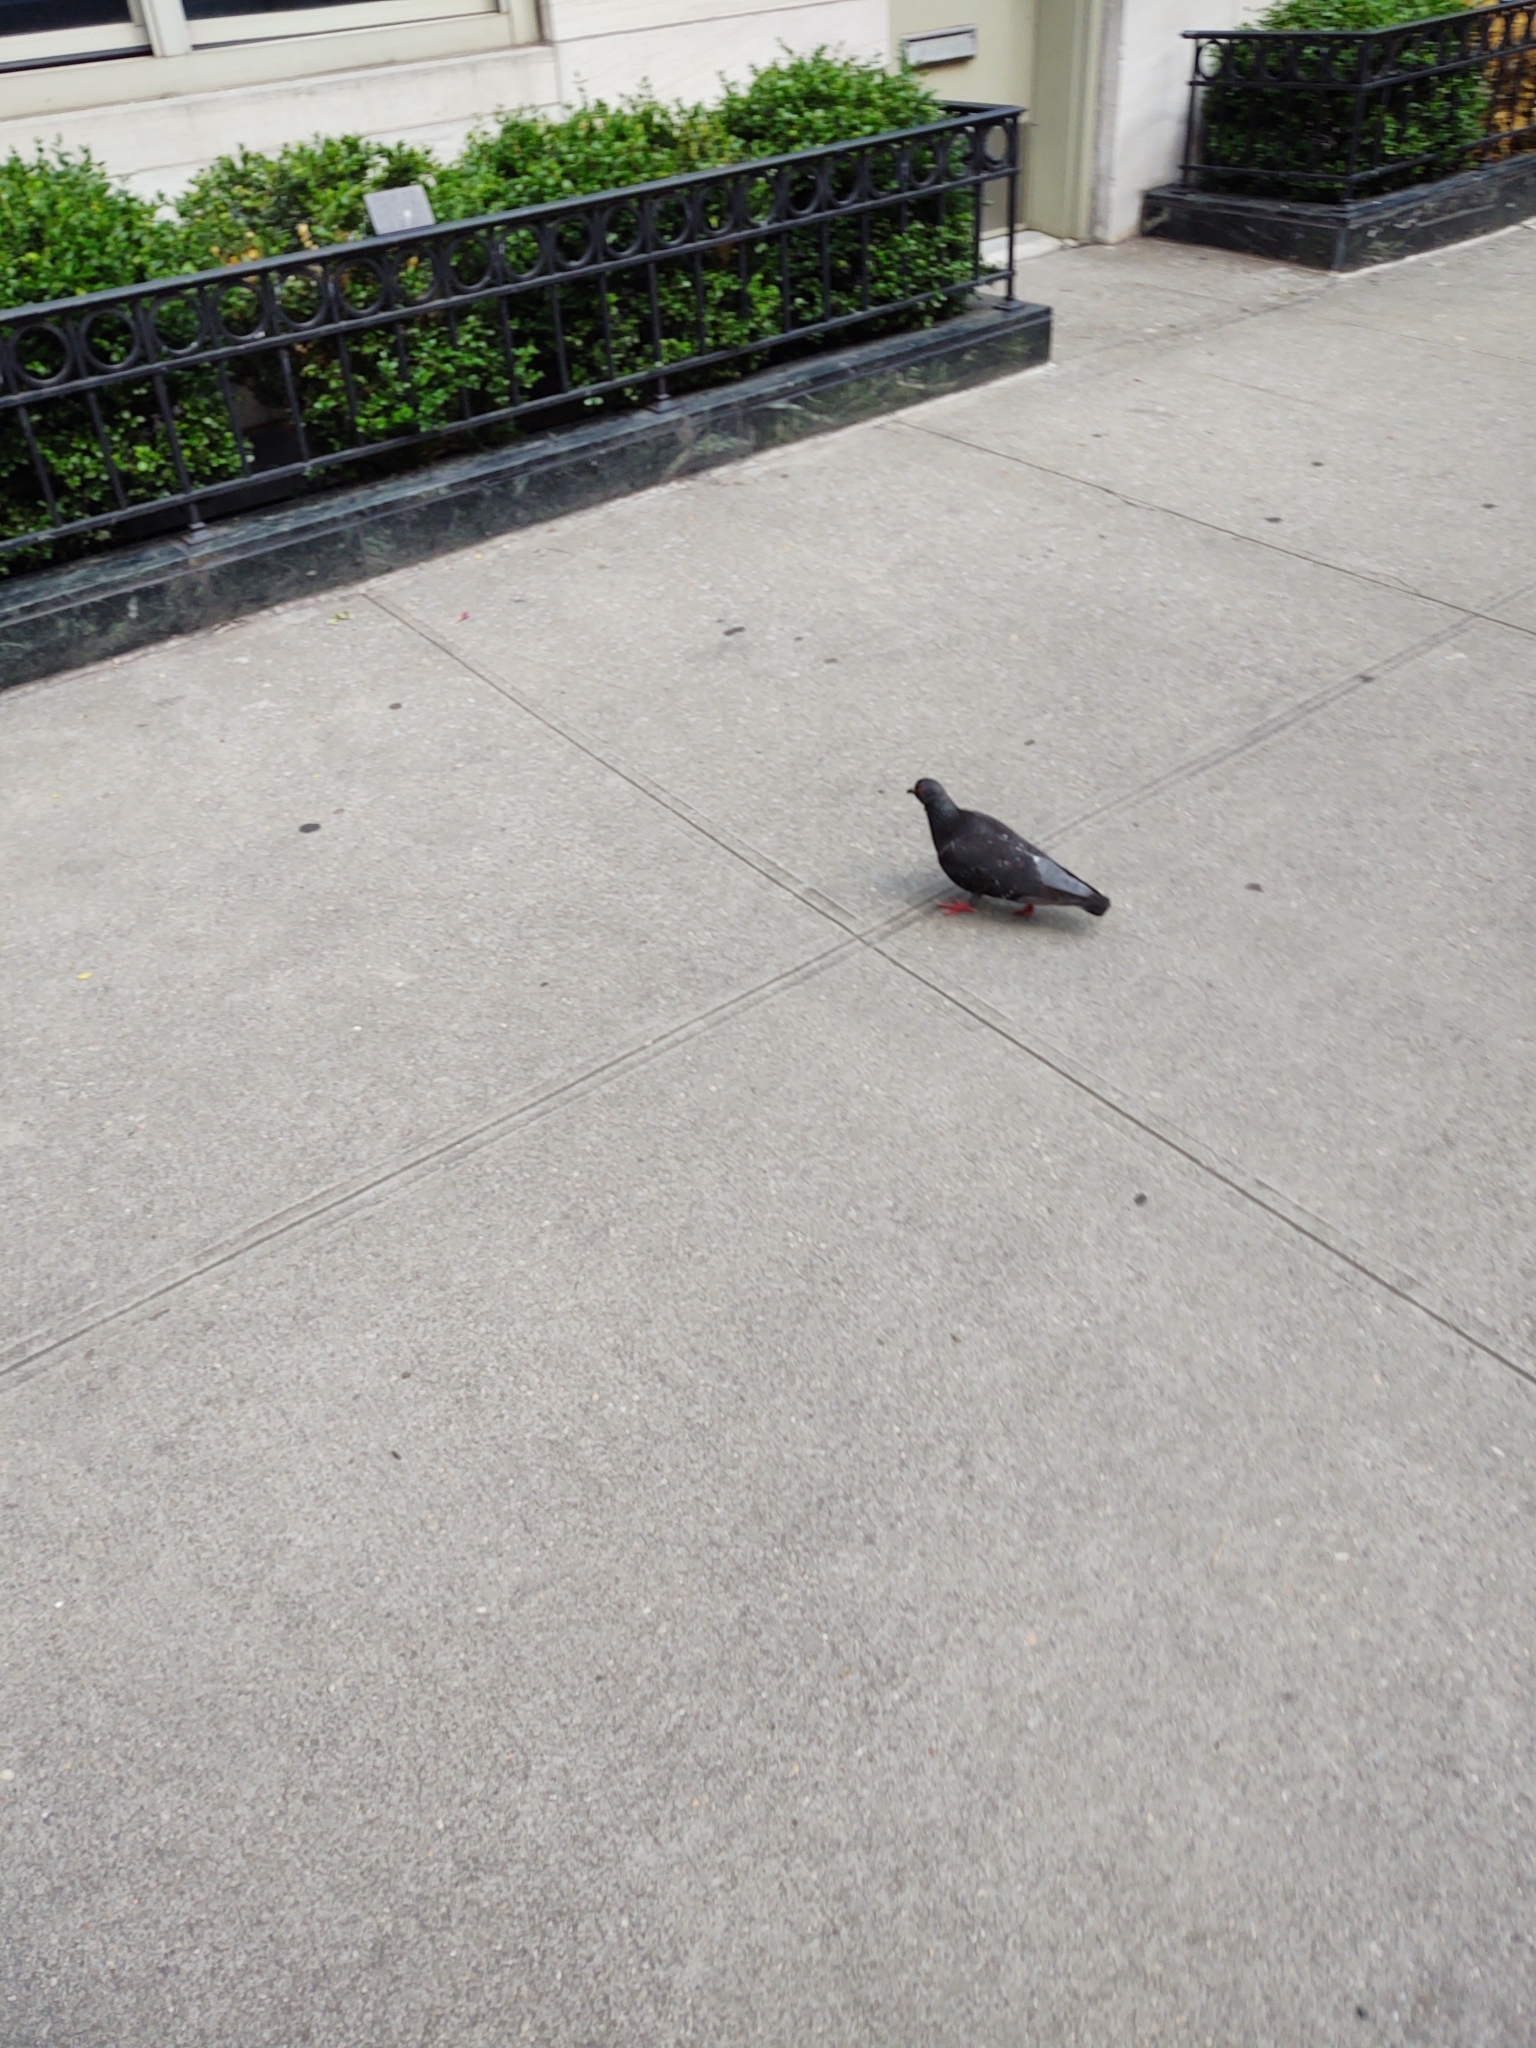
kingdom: Animalia
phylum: Chordata
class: Aves
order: Columbiformes
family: Columbidae
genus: Columba
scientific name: Columba livia
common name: Rock pigeon
